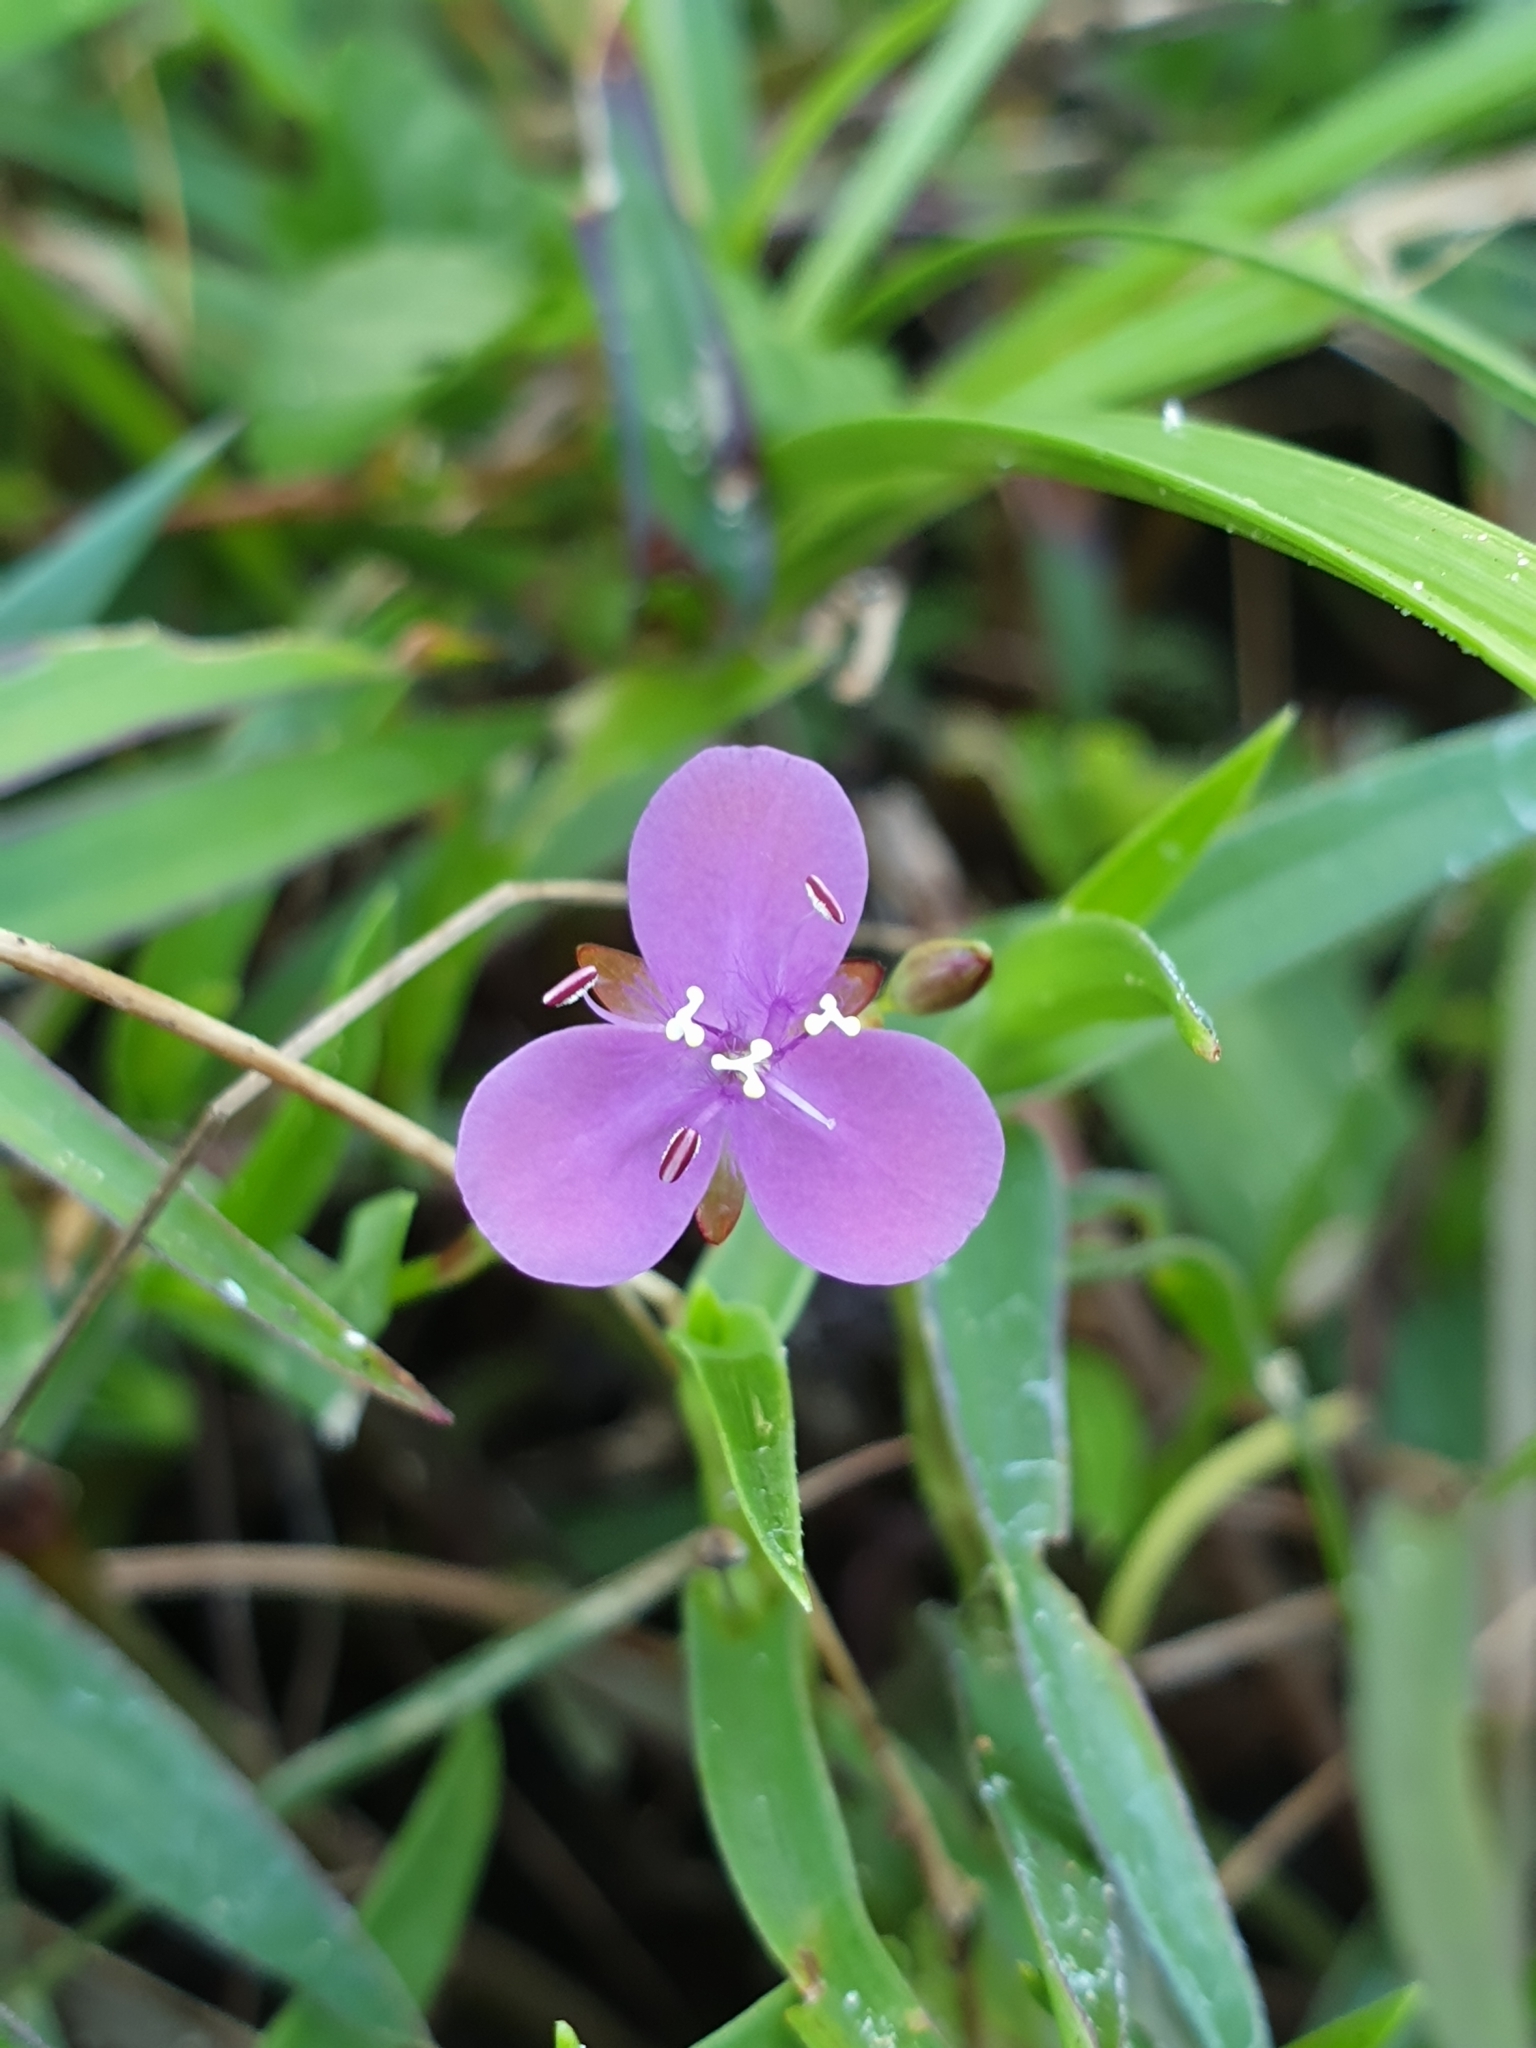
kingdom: Plantae
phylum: Tracheophyta
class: Liliopsida
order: Commelinales
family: Commelinaceae
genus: Murdannia
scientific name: Murdannia spirata
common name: Asiatic dewflower
